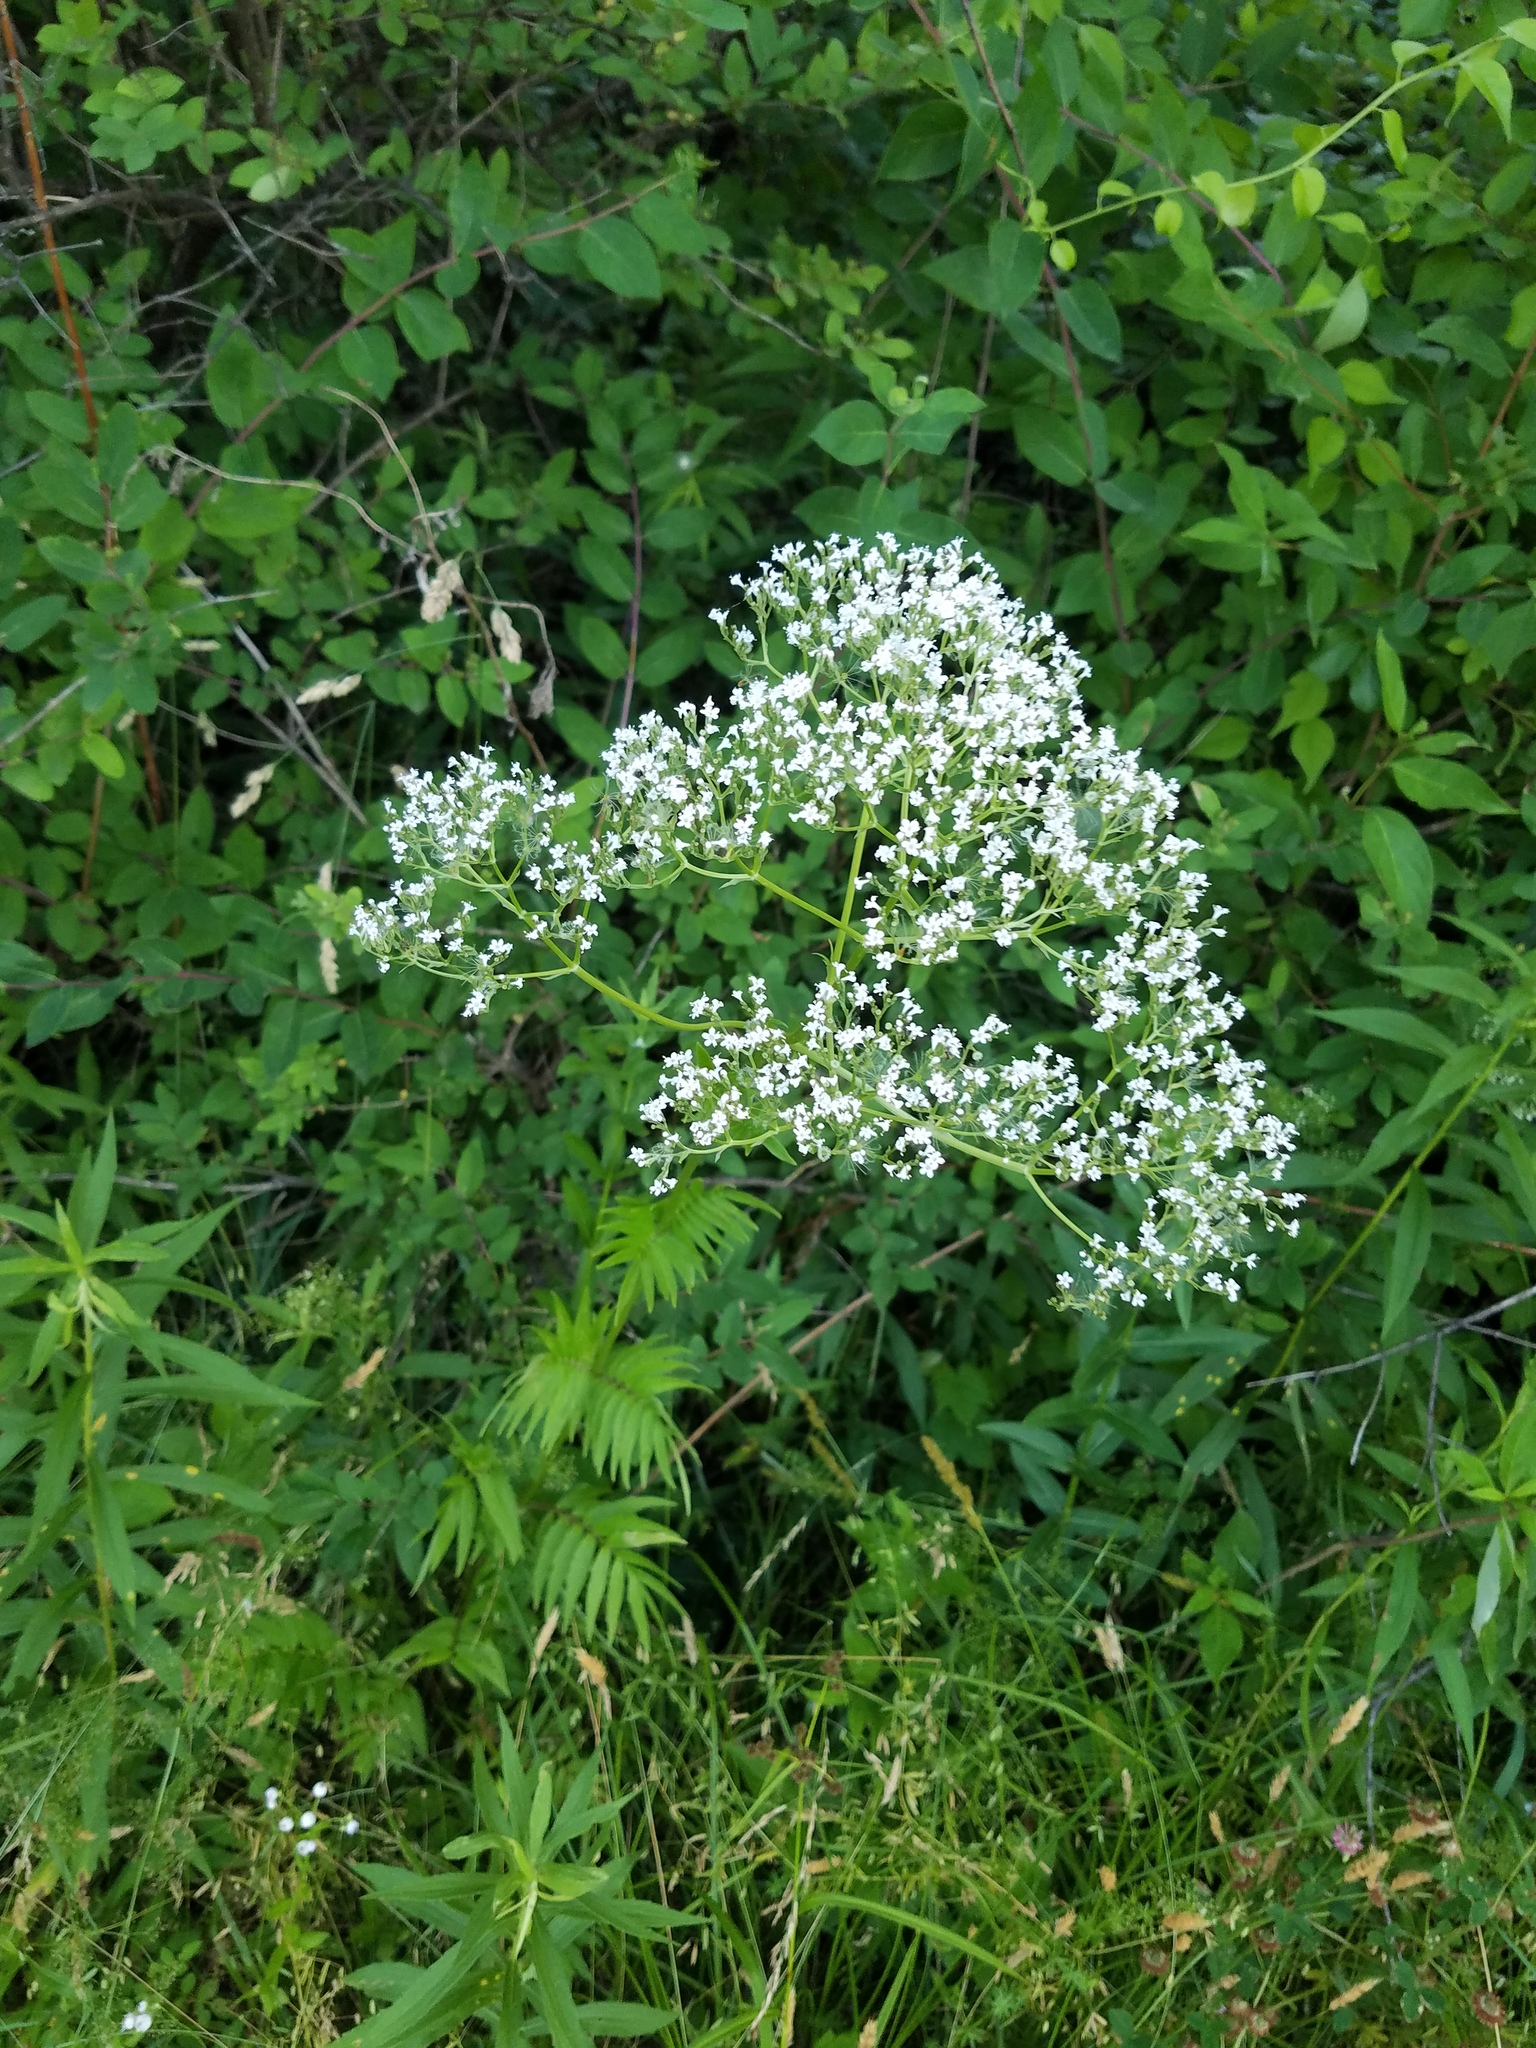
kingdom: Plantae
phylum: Tracheophyta
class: Magnoliopsida
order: Dipsacales
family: Caprifoliaceae
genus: Valeriana
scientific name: Valeriana officinalis
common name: Common valerian
